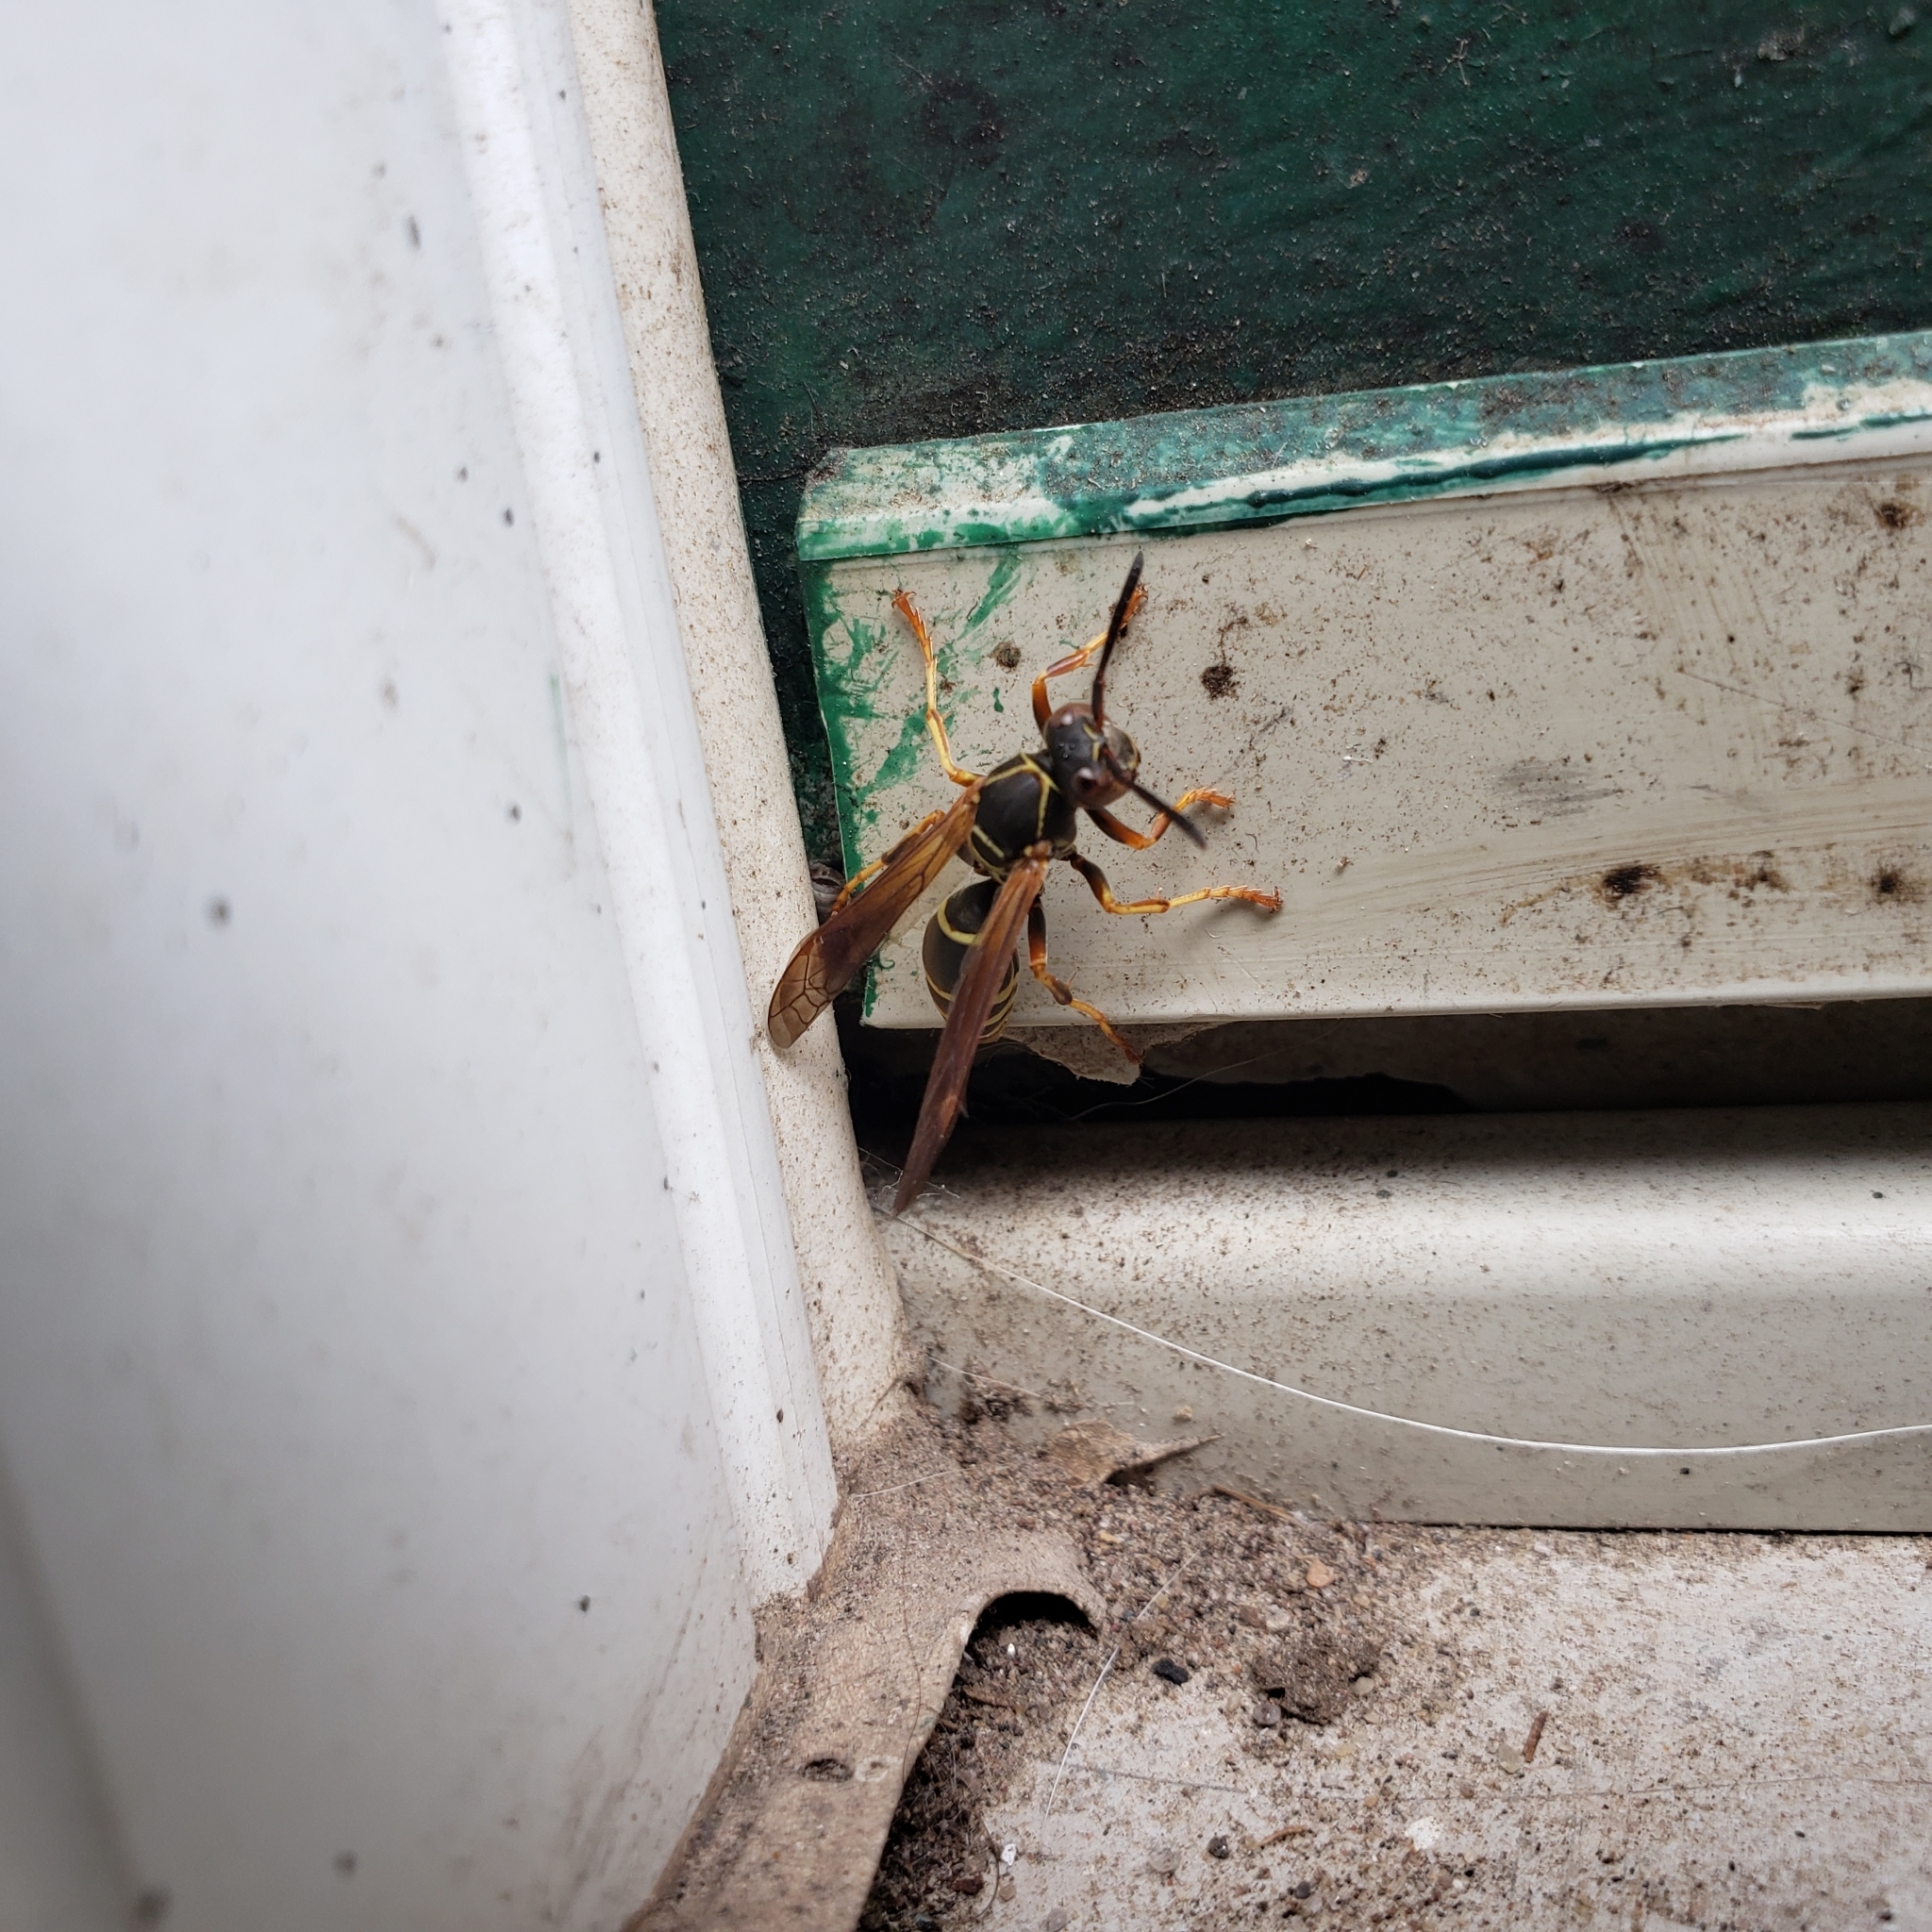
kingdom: Animalia
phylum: Arthropoda
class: Insecta
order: Hymenoptera
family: Eumenidae
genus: Polistes
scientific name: Polistes fuscatus
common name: Dark paper wasp
